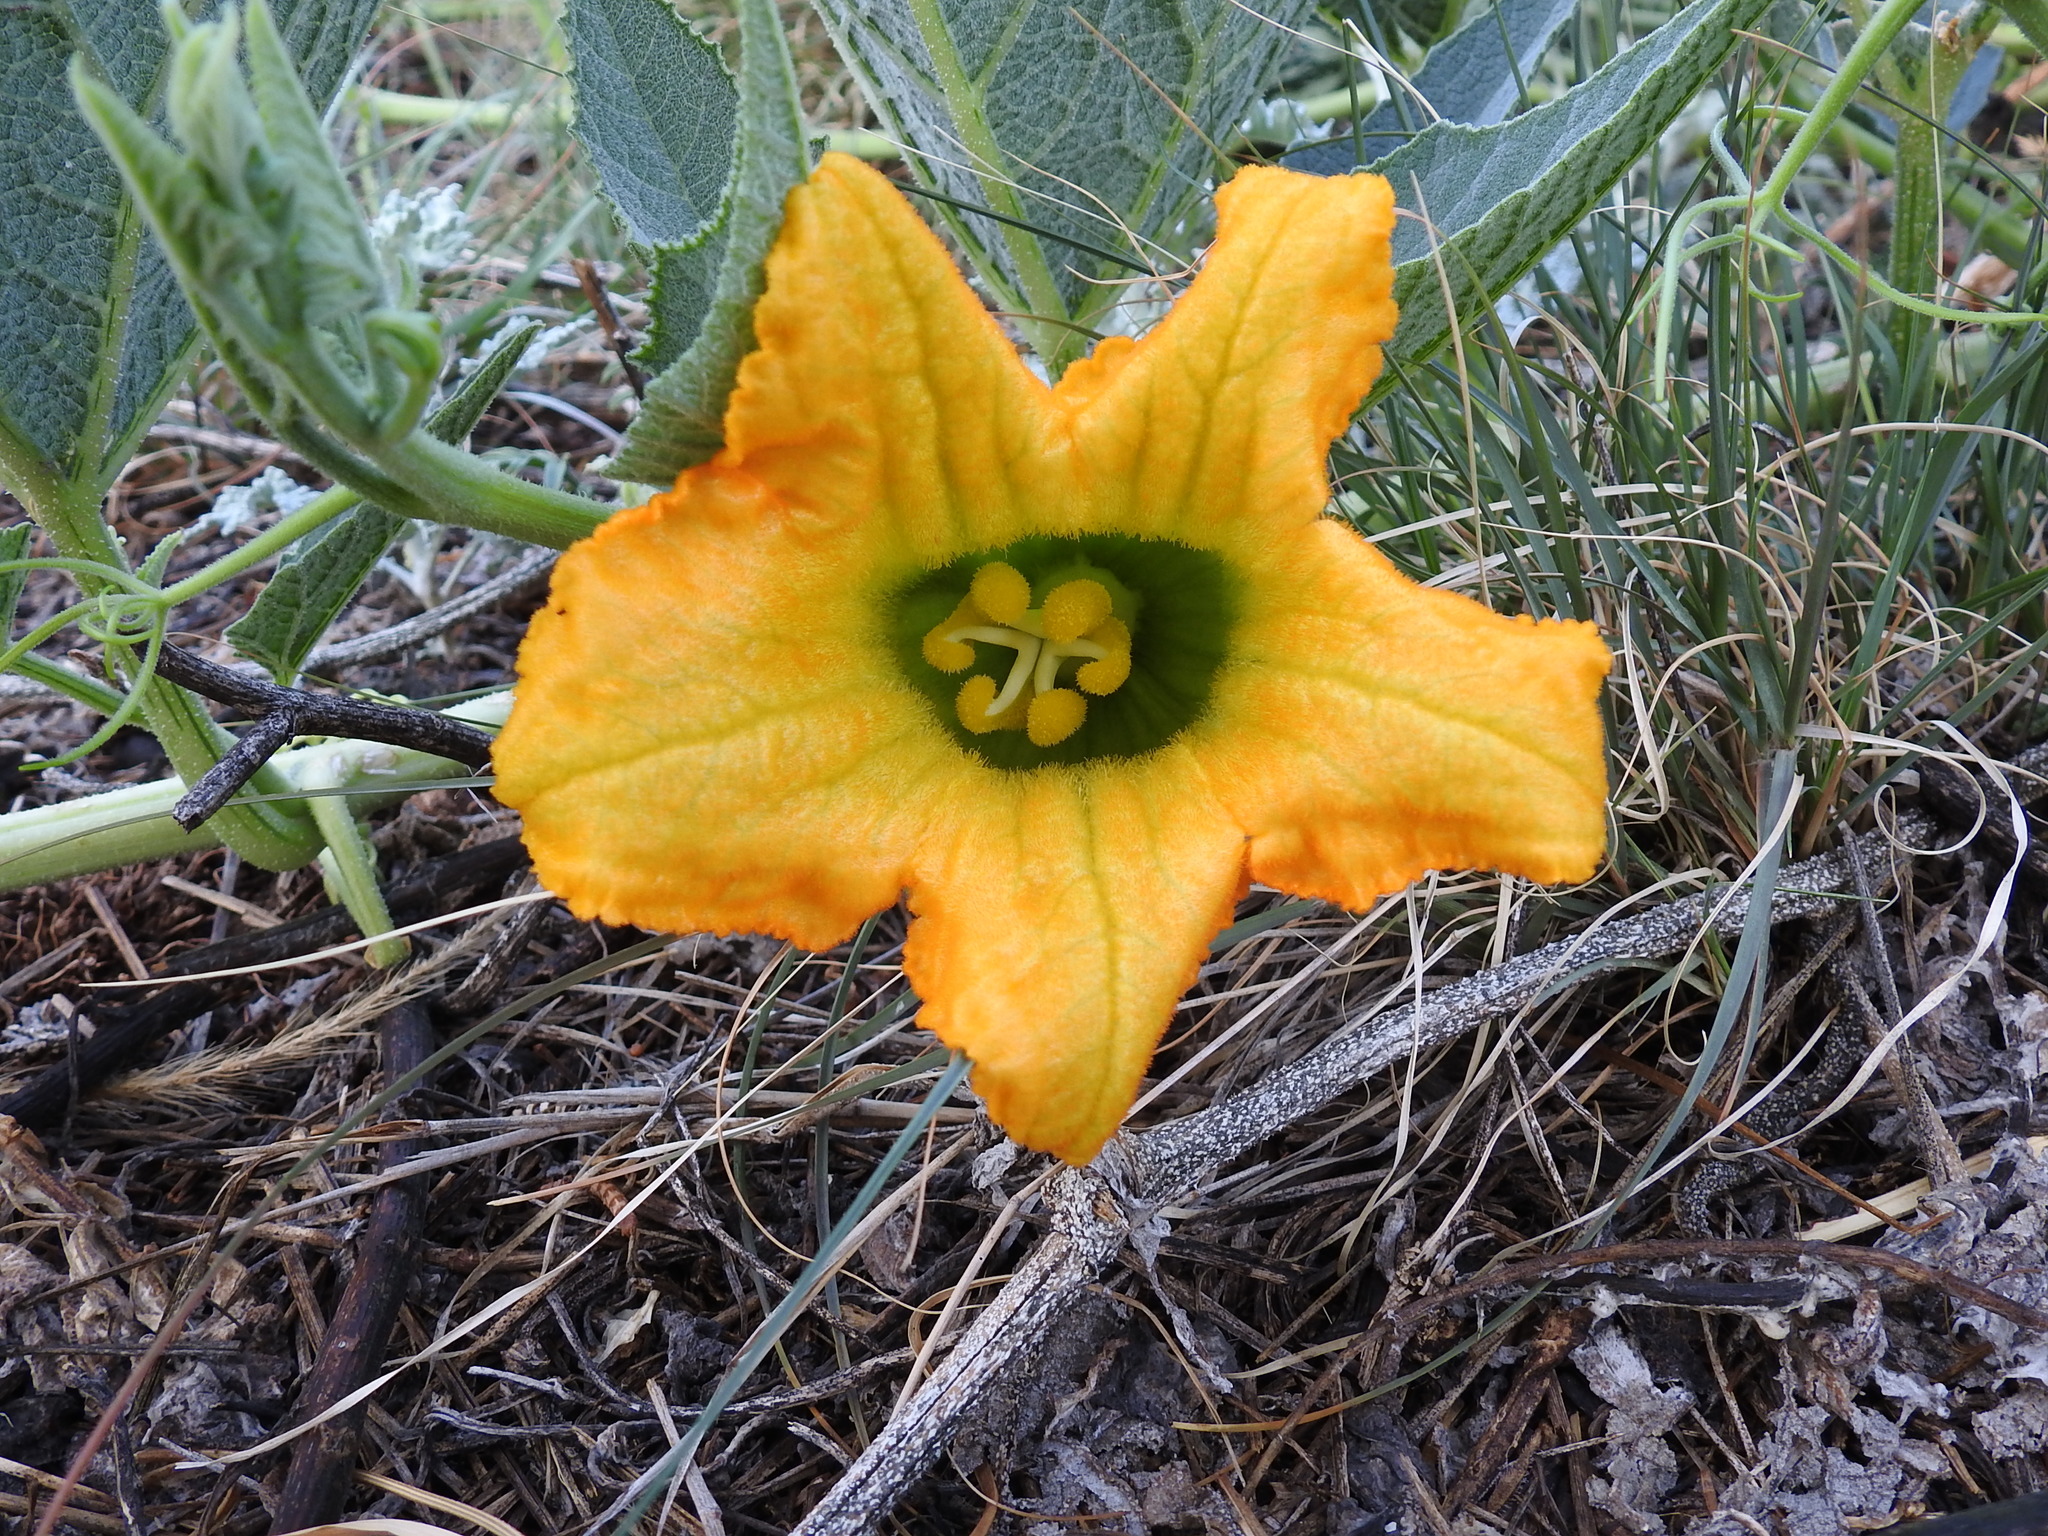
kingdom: Plantae
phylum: Tracheophyta
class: Magnoliopsida
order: Cucurbitales
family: Cucurbitaceae
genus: Cucurbita
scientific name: Cucurbita foetidissima
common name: Buffalo gourd
